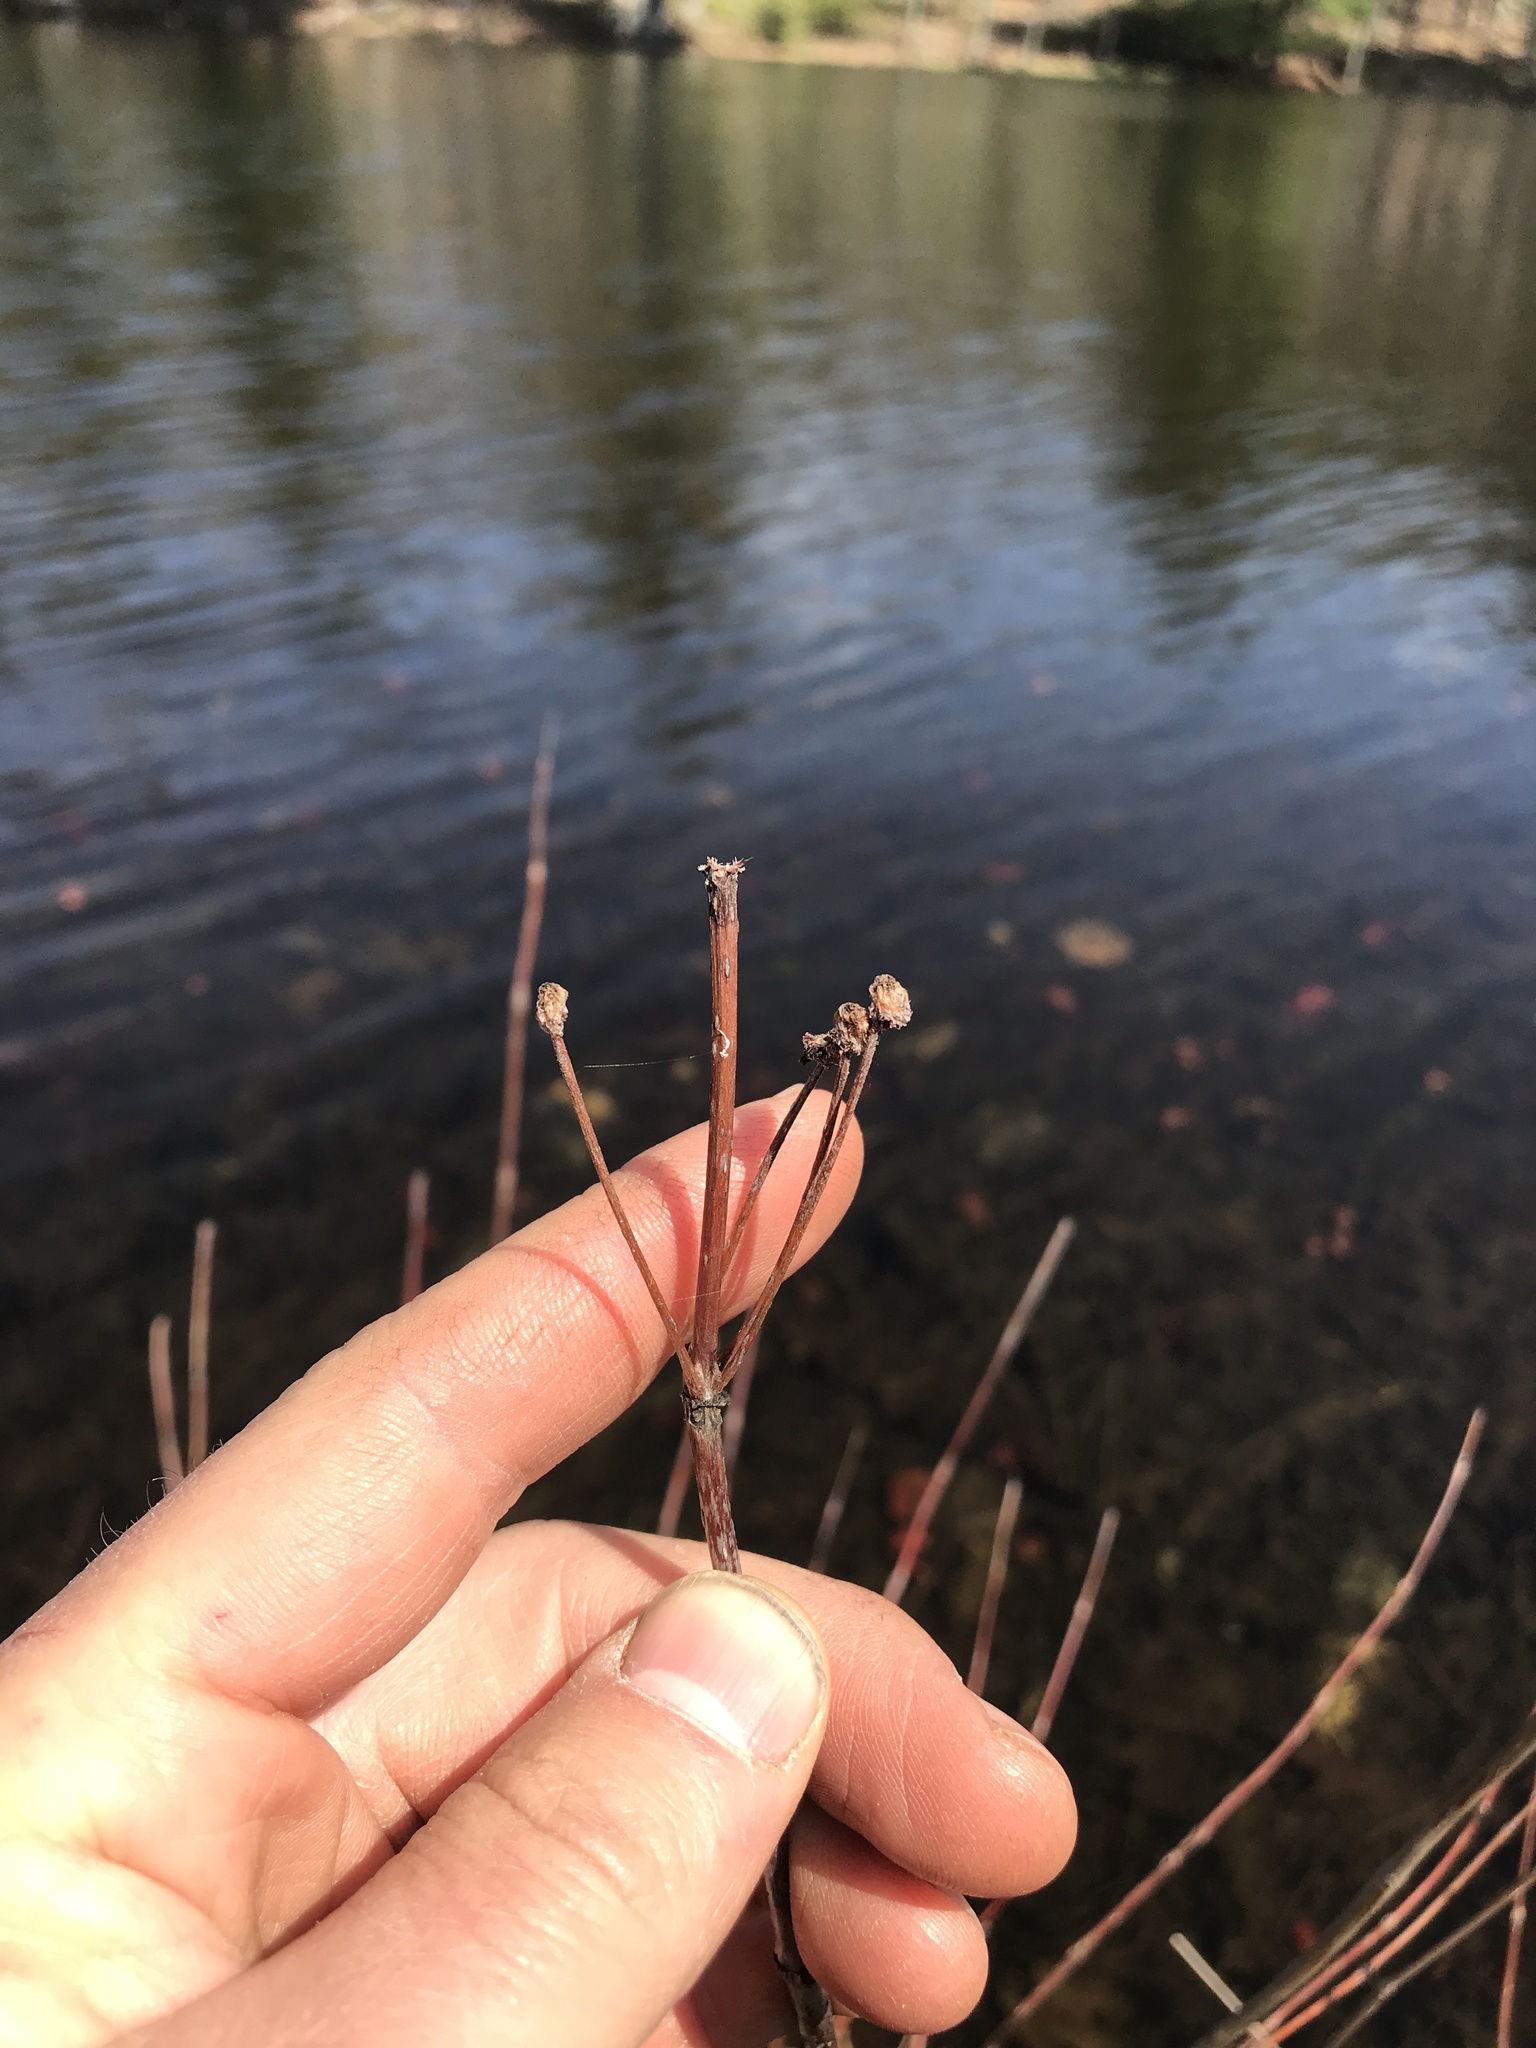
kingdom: Plantae
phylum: Tracheophyta
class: Magnoliopsida
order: Gentianales
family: Rubiaceae
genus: Cephalanthus
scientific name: Cephalanthus occidentalis
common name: Button-willow
